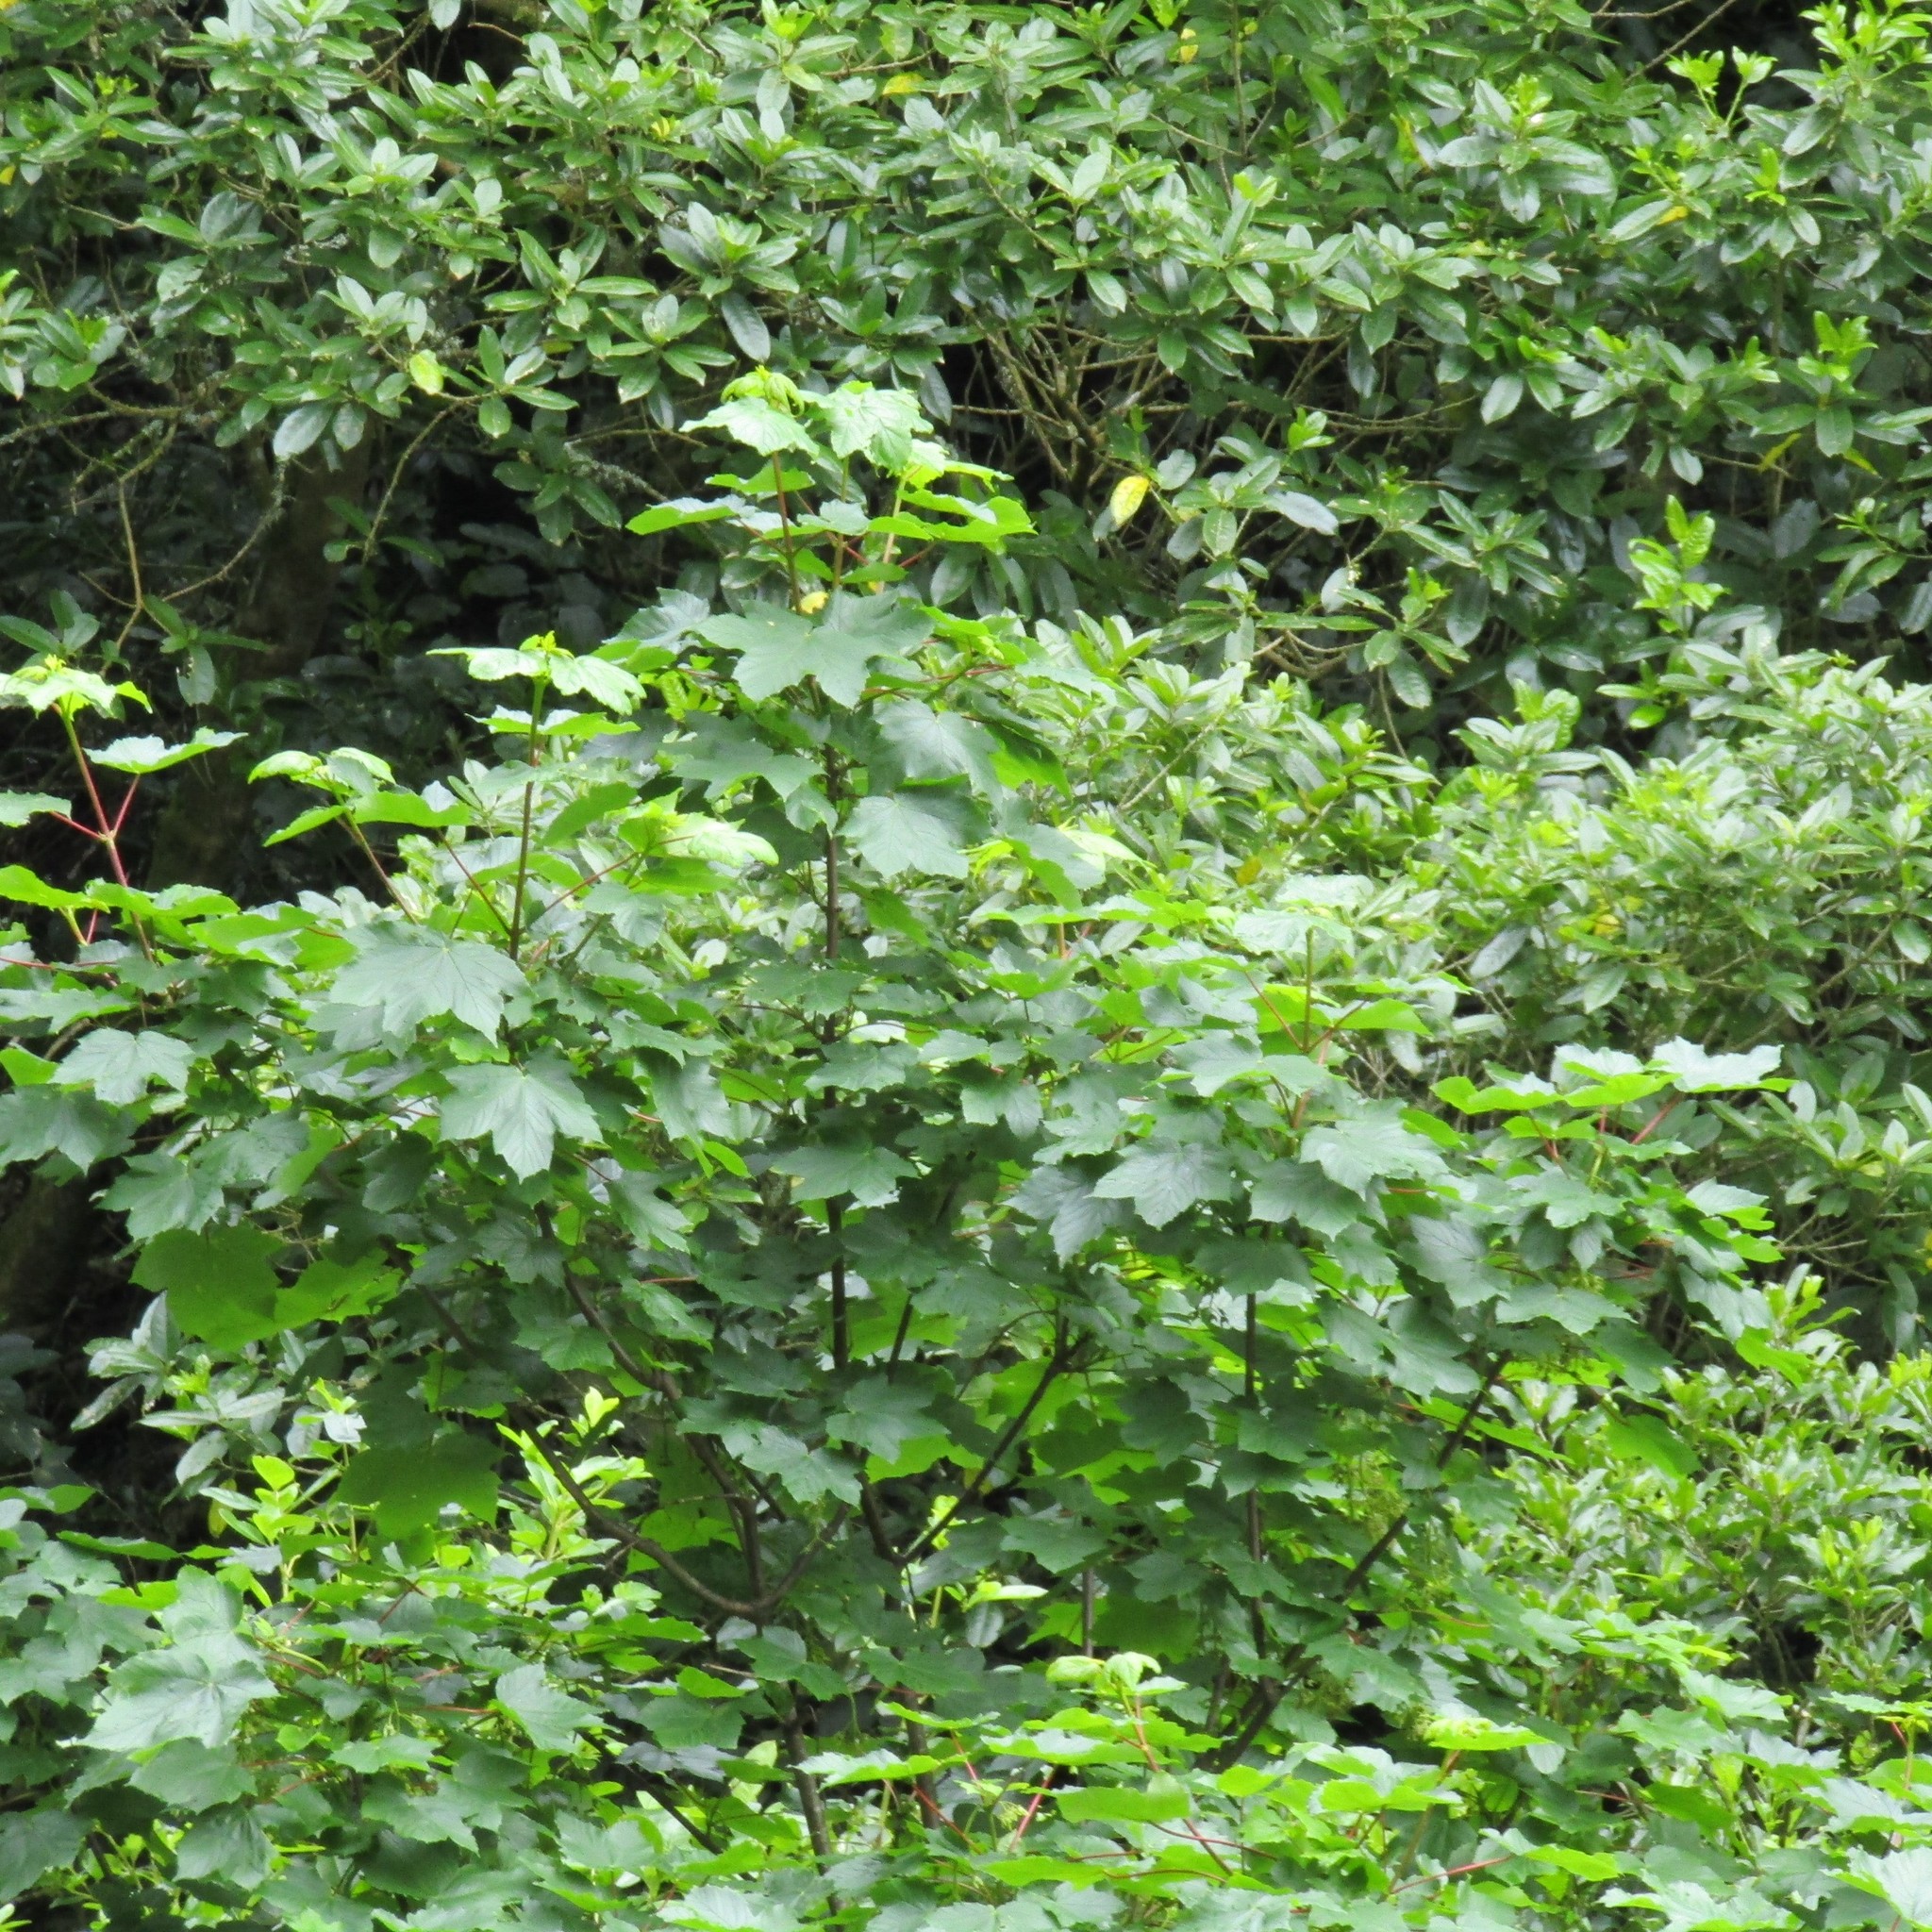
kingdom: Plantae
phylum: Tracheophyta
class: Magnoliopsida
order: Sapindales
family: Sapindaceae
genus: Acer
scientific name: Acer pseudoplatanus
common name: Sycamore
